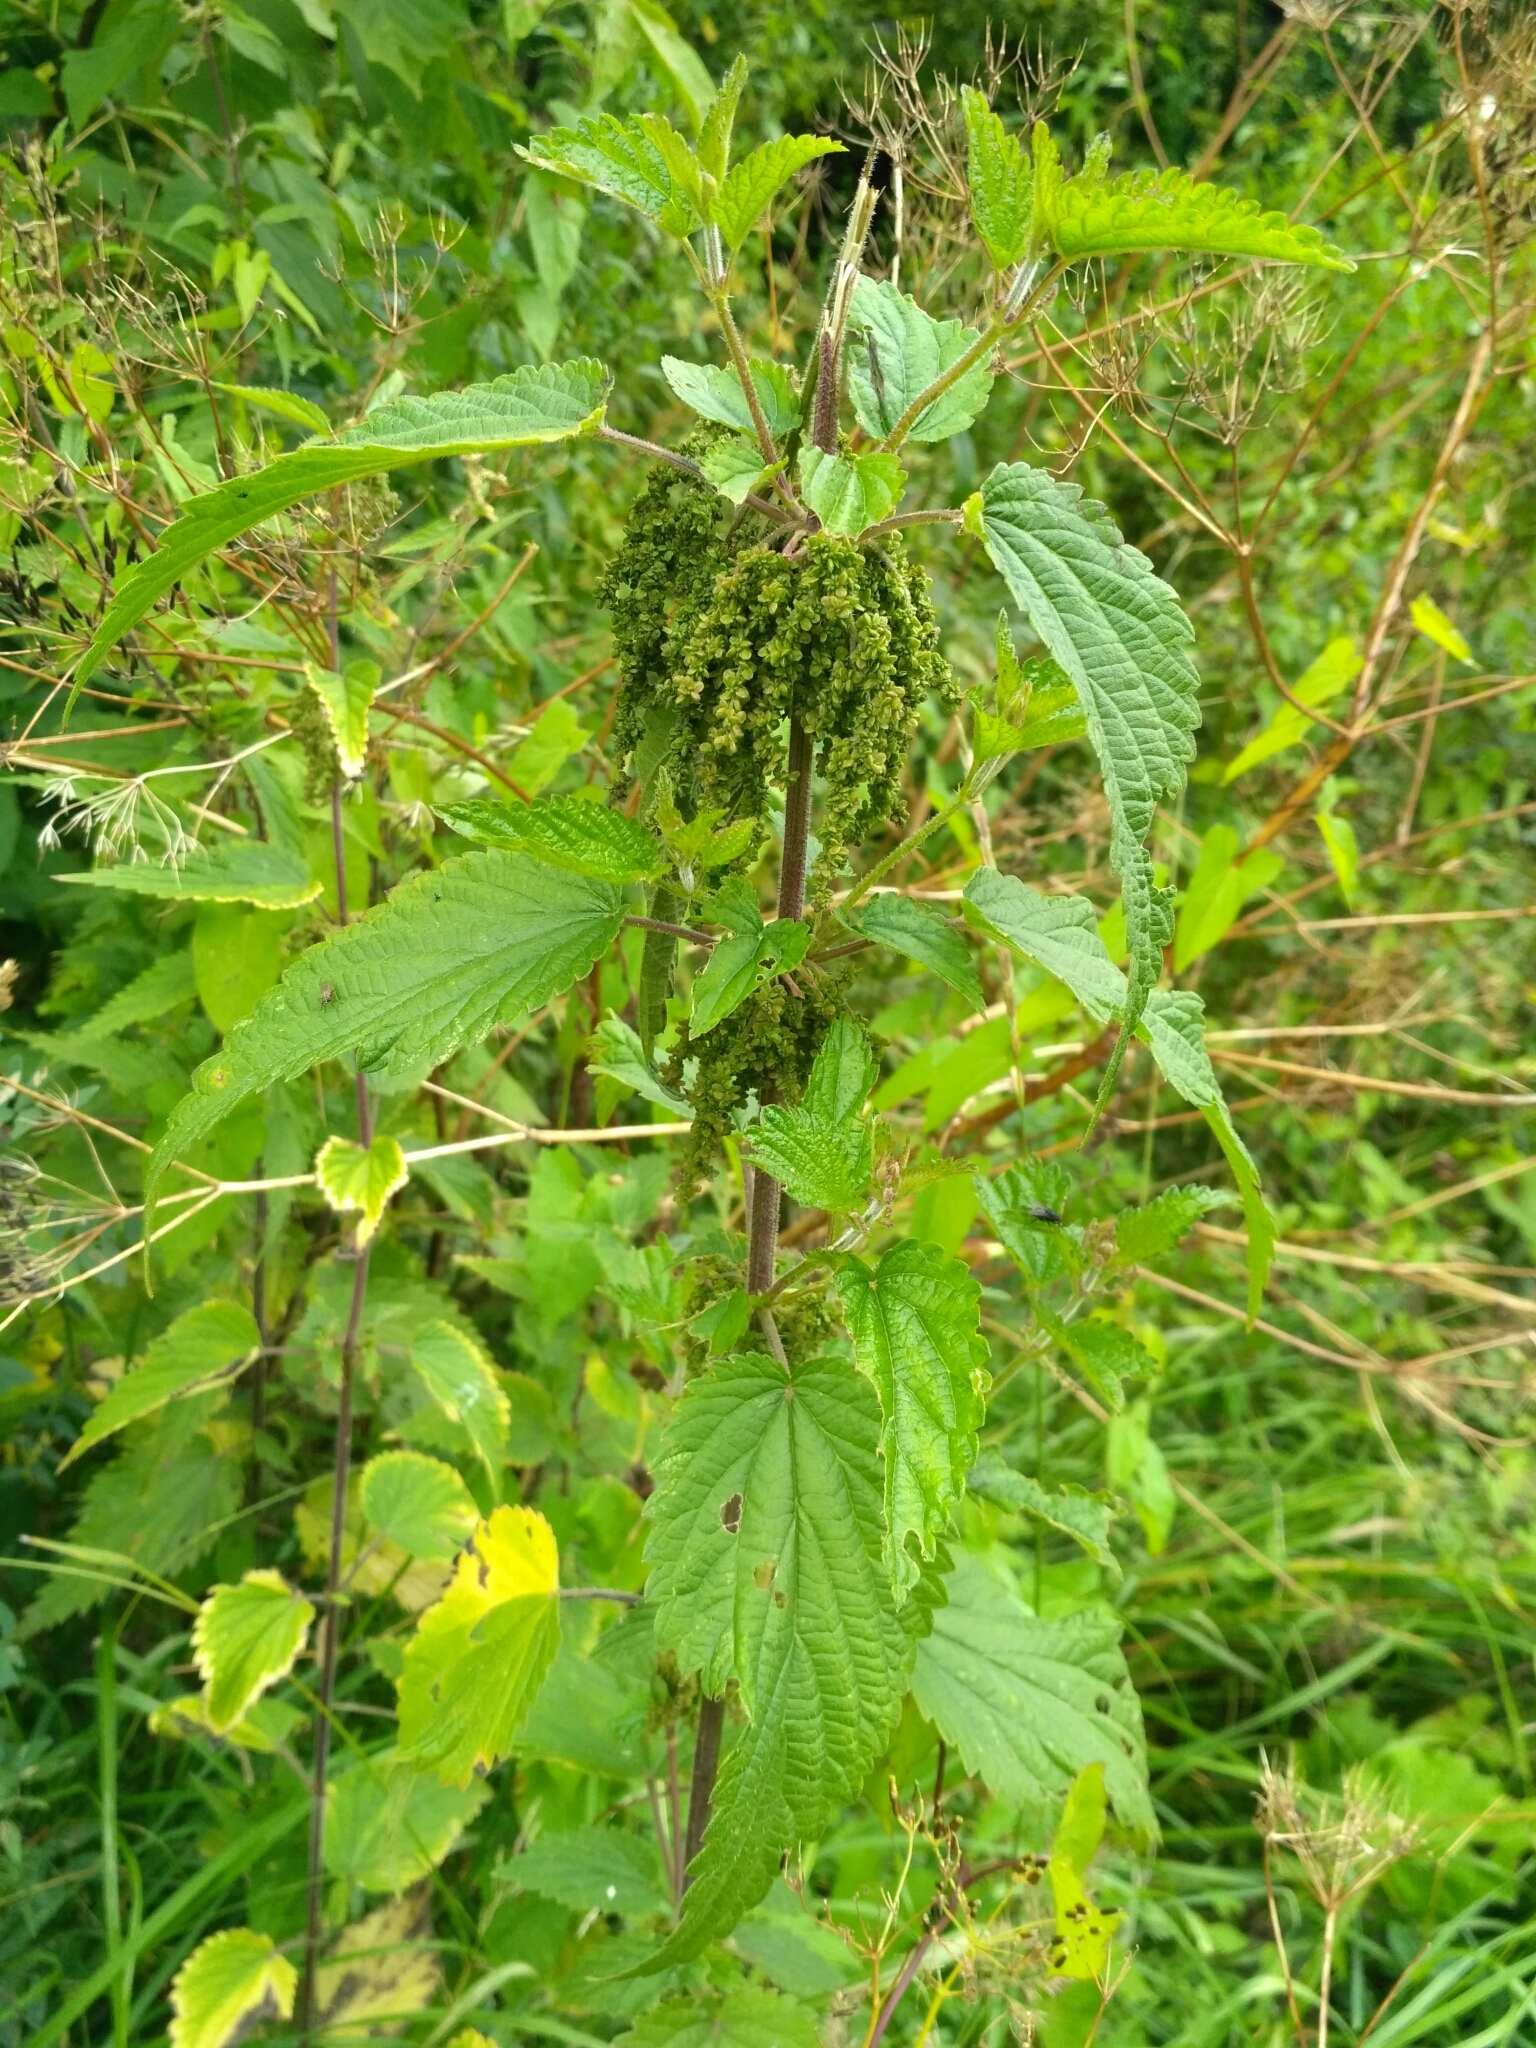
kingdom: Plantae
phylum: Tracheophyta
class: Magnoliopsida
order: Rosales
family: Urticaceae
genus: Urtica
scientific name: Urtica dioica
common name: Common nettle
